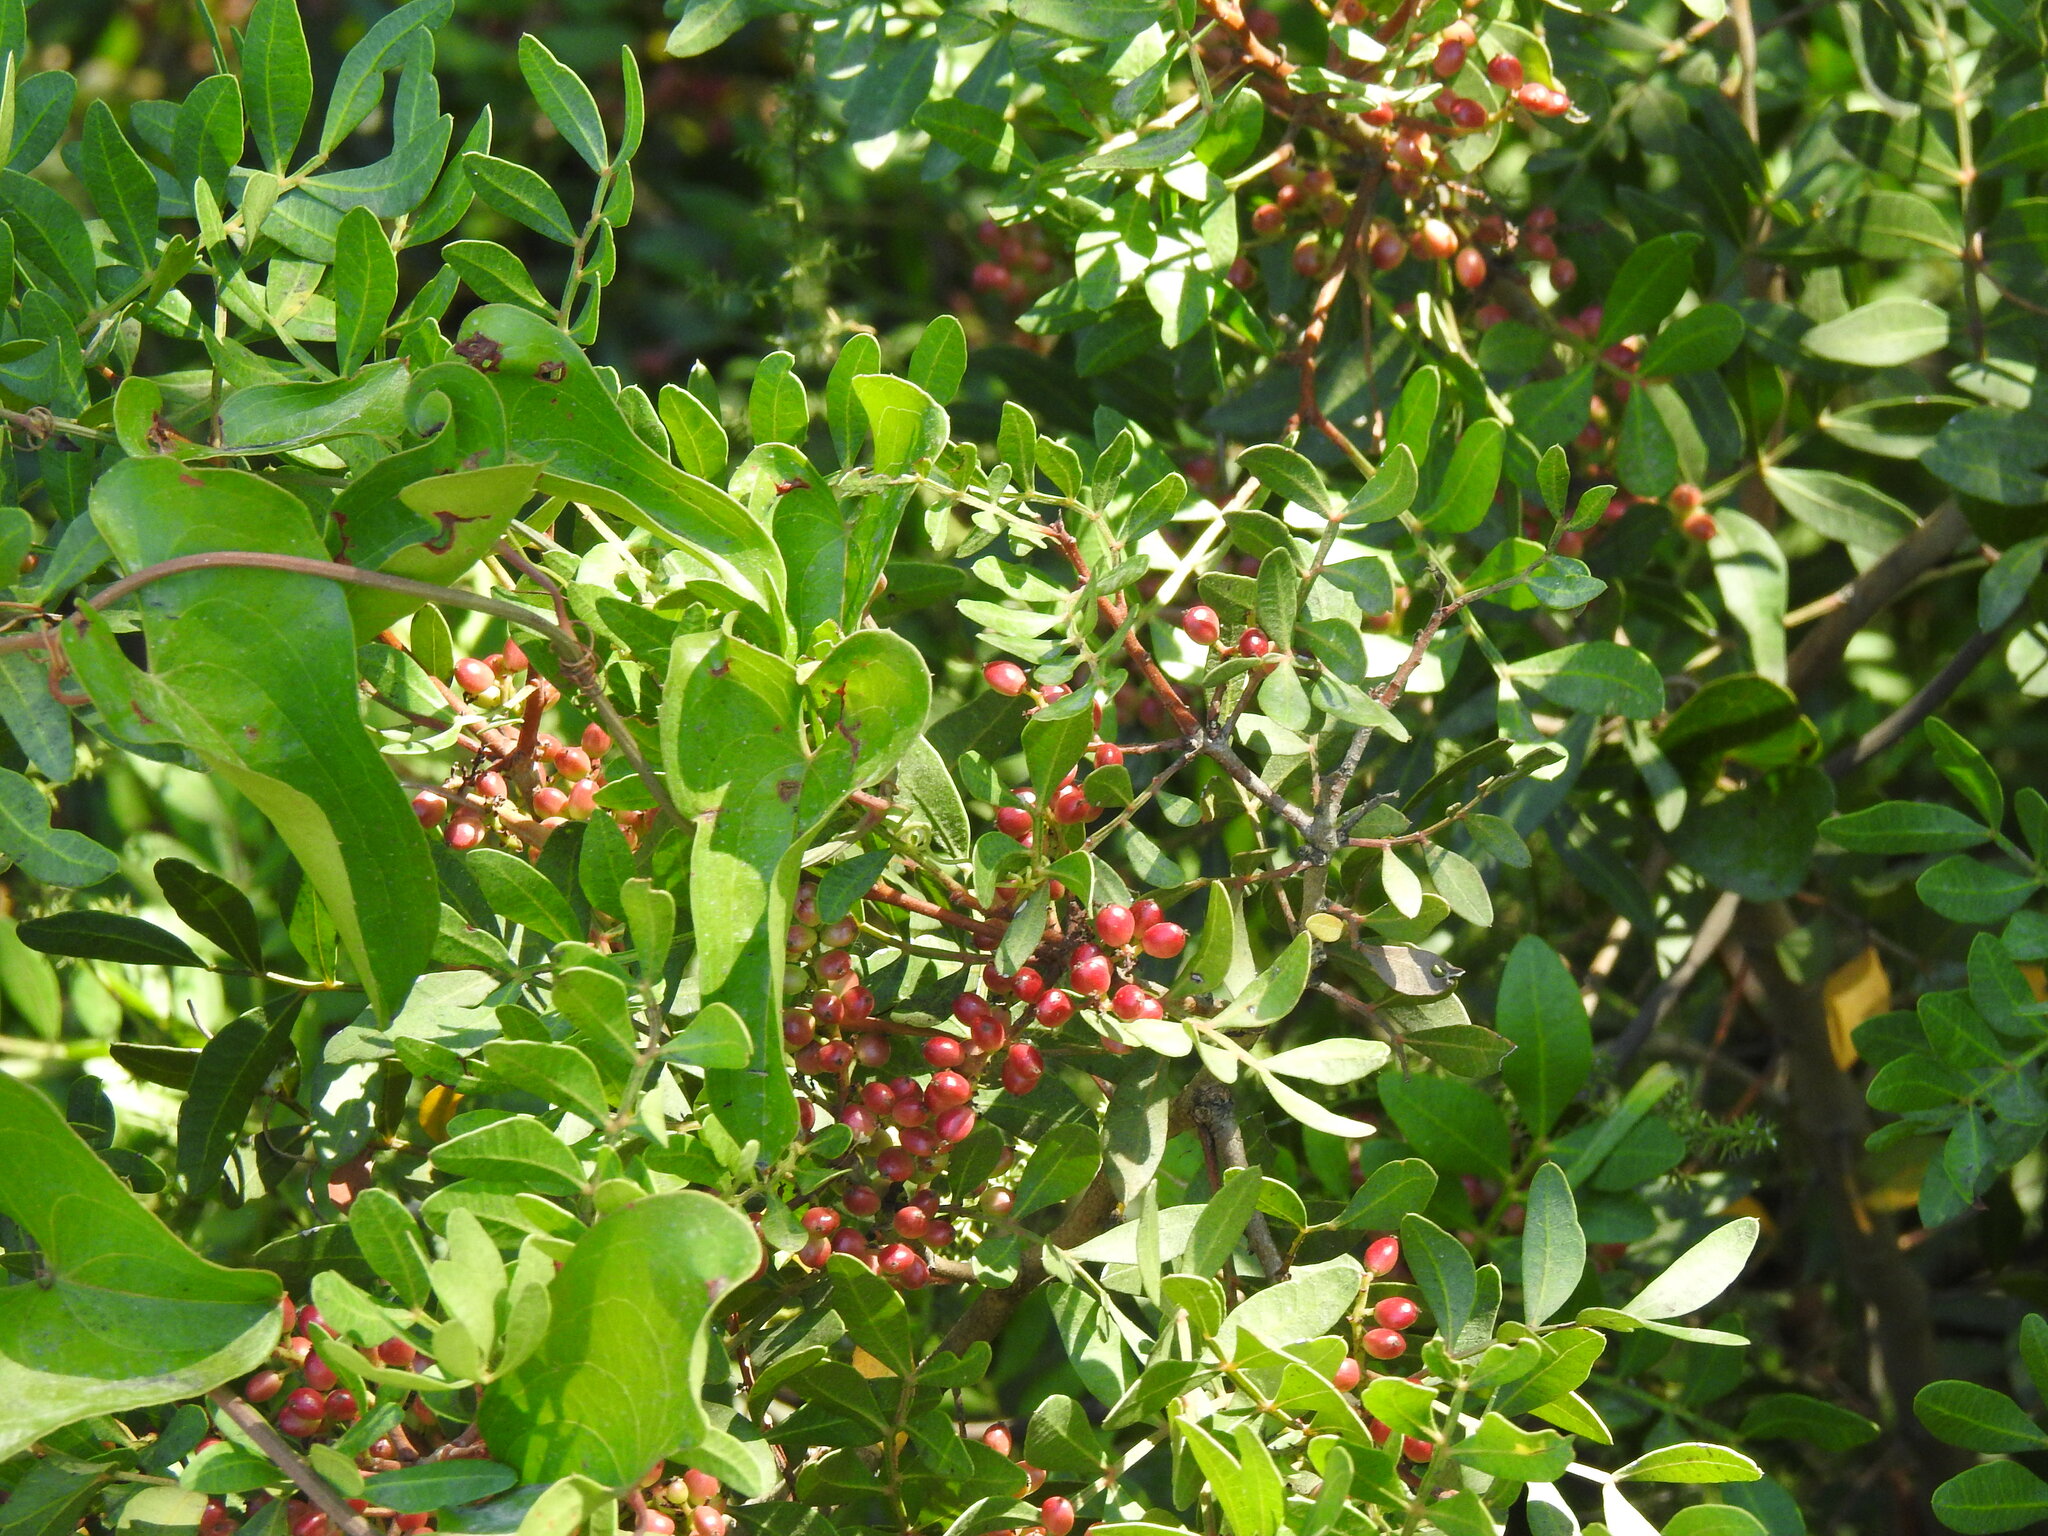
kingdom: Plantae
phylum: Tracheophyta
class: Magnoliopsida
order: Sapindales
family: Anacardiaceae
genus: Pistacia
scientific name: Pistacia lentiscus
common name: Lentisk
